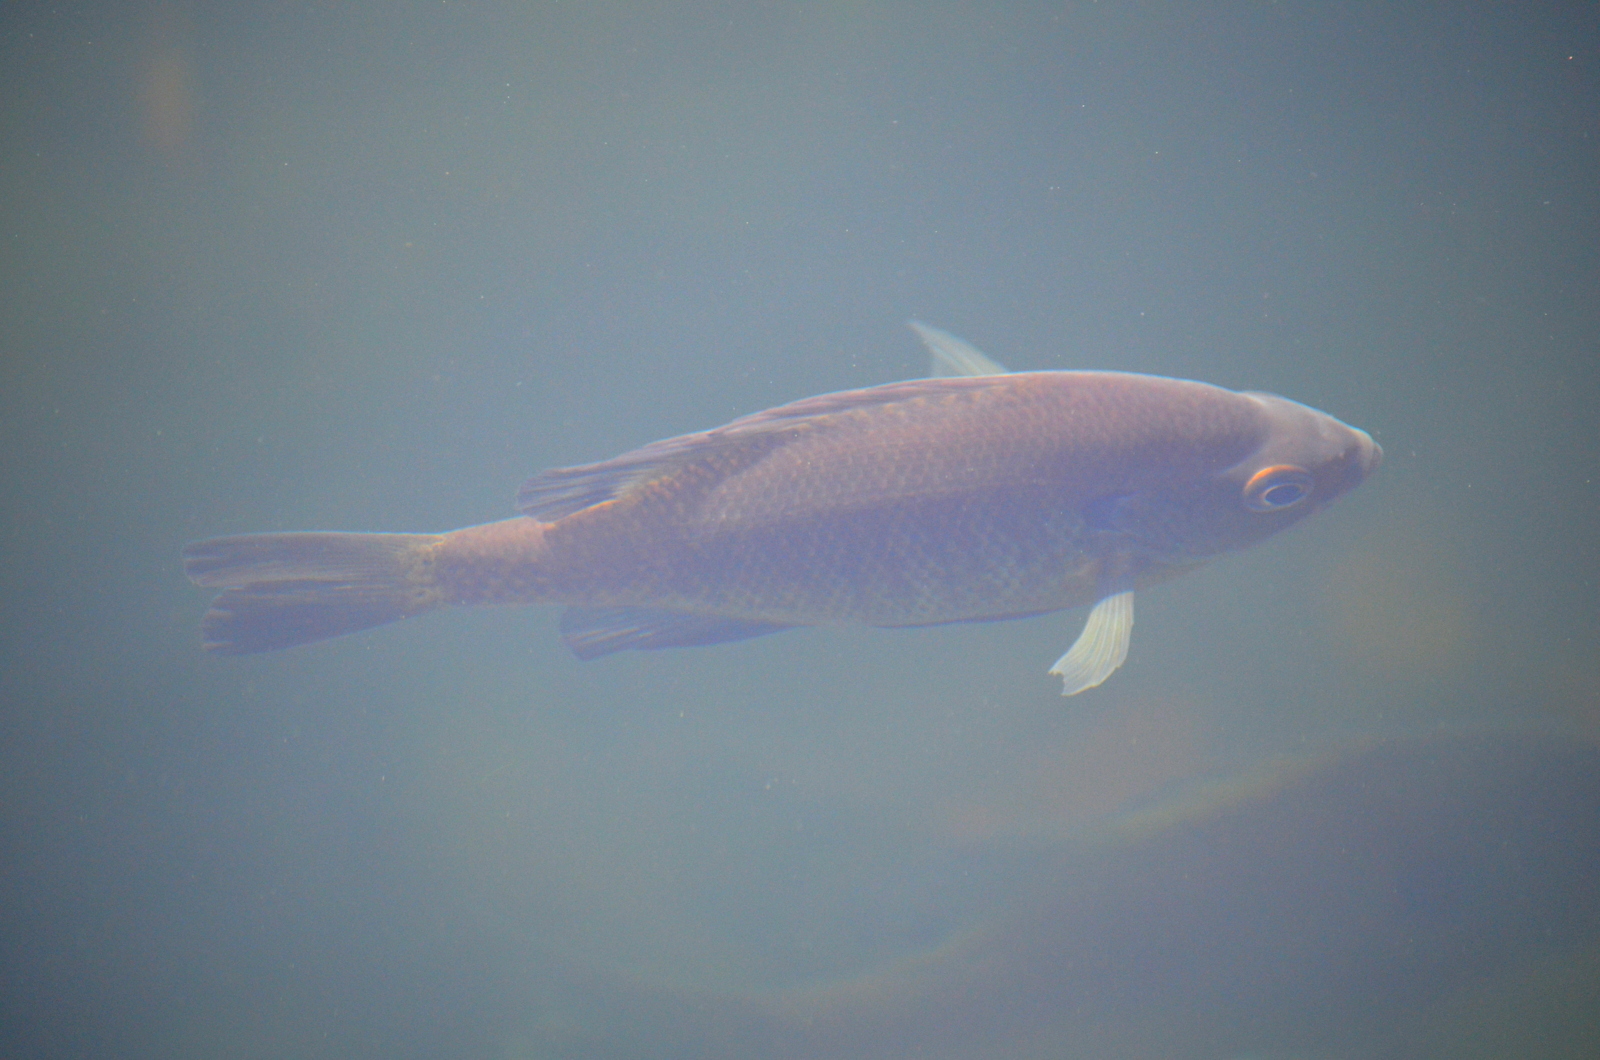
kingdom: Animalia
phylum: Chordata
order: Perciformes
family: Centrarchidae
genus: Lepomis
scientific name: Lepomis macrochirus
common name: Bluegill
